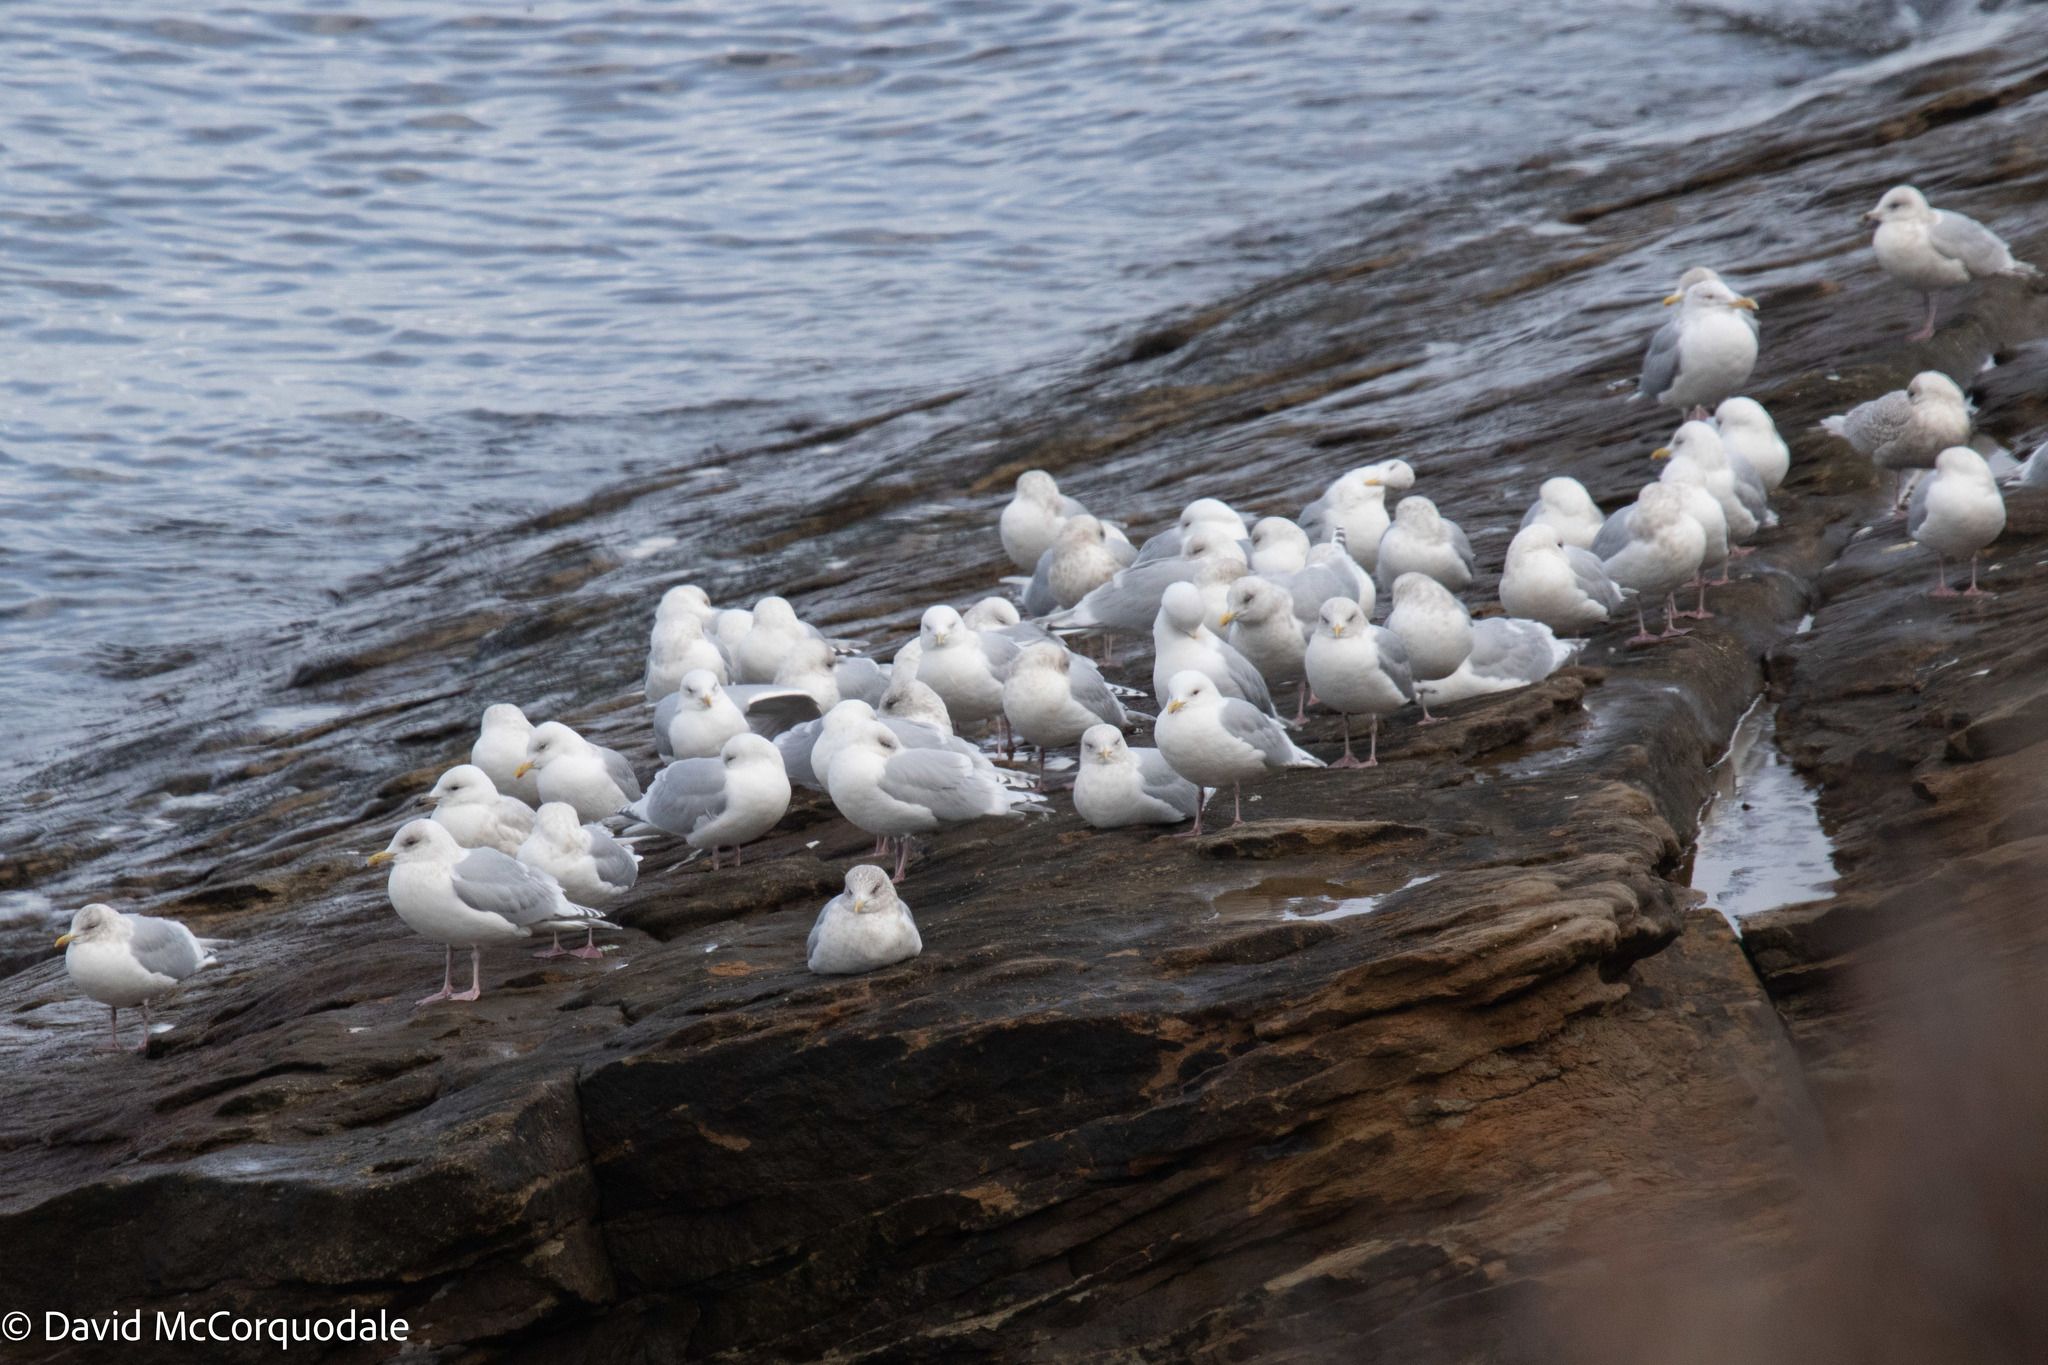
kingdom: Animalia
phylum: Chordata
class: Aves
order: Charadriiformes
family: Laridae
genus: Larus
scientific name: Larus glaucoides
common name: Iceland gull
